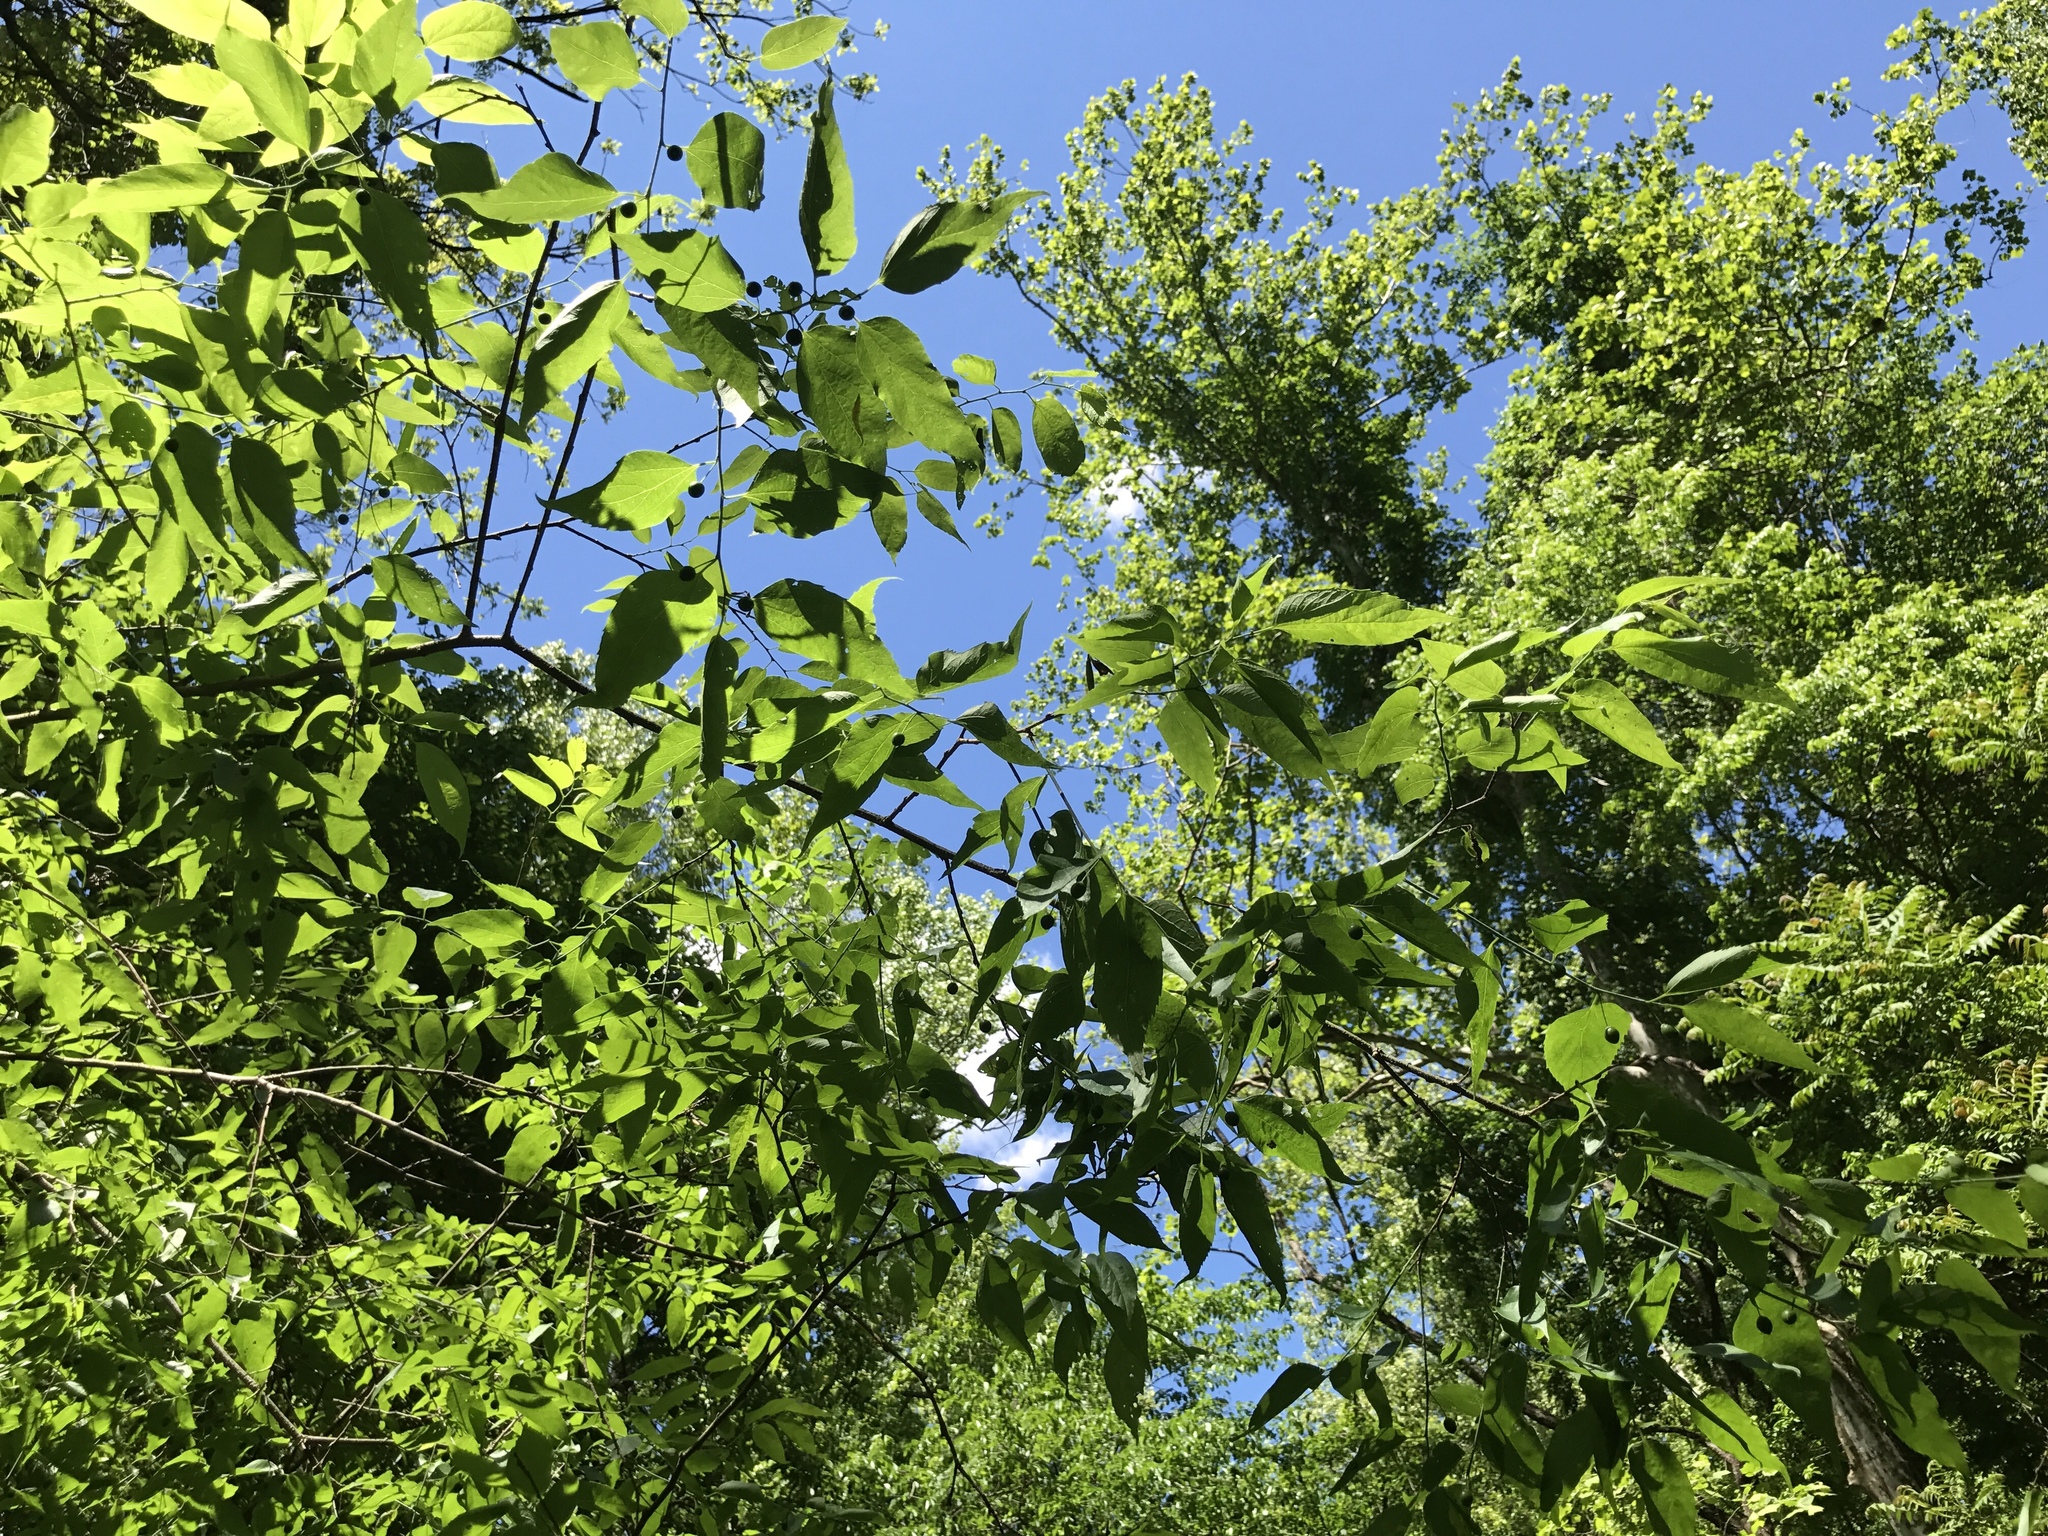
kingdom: Plantae
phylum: Tracheophyta
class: Magnoliopsida
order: Rosales
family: Cannabaceae
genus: Celtis
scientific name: Celtis occidentalis
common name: Common hackberry
